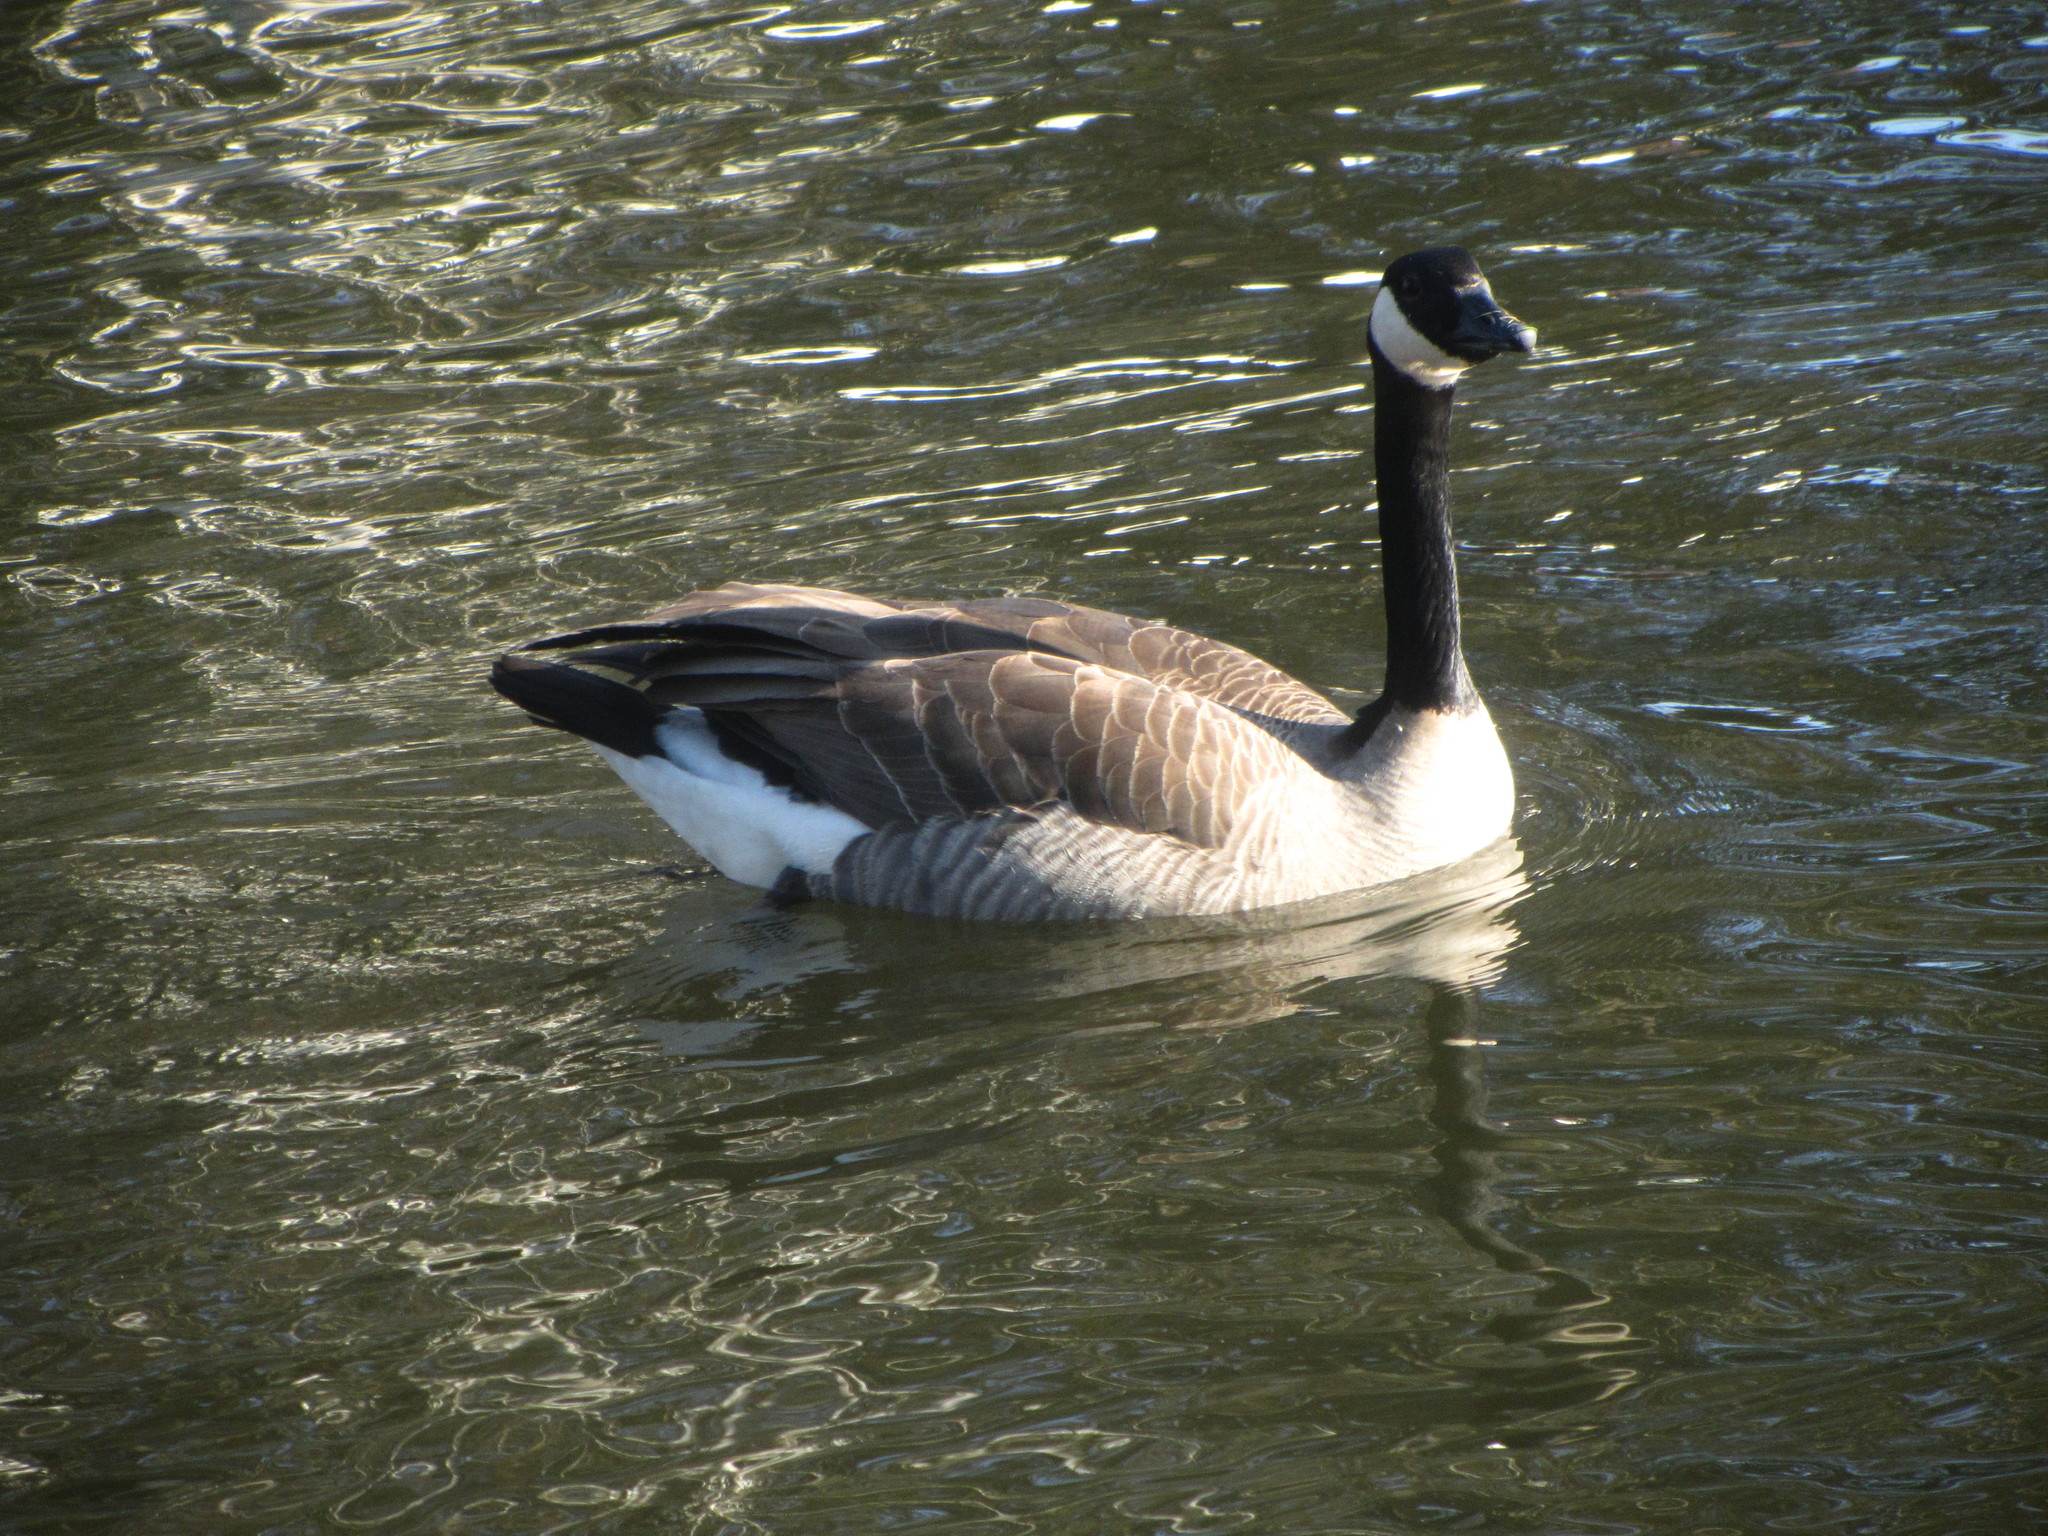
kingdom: Animalia
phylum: Chordata
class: Aves
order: Anseriformes
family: Anatidae
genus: Branta
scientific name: Branta canadensis
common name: Canada goose
